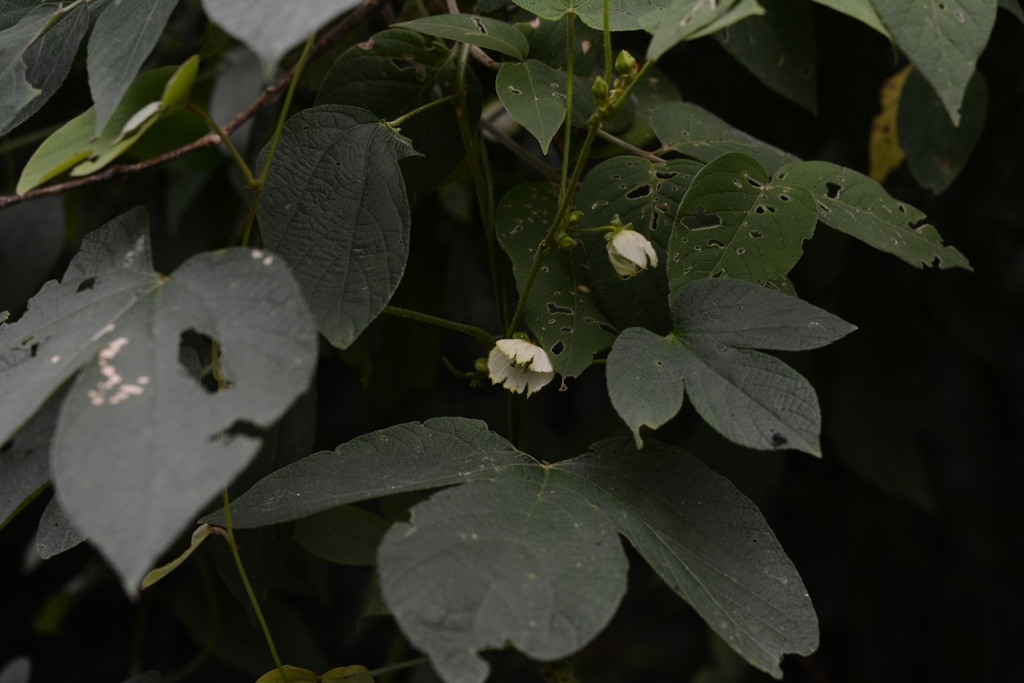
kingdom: Plantae
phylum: Tracheophyta
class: Magnoliopsida
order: Malpighiales
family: Euphorbiaceae
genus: Dalechampia
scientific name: Dalechampia scandens
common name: Spurgecreeper
